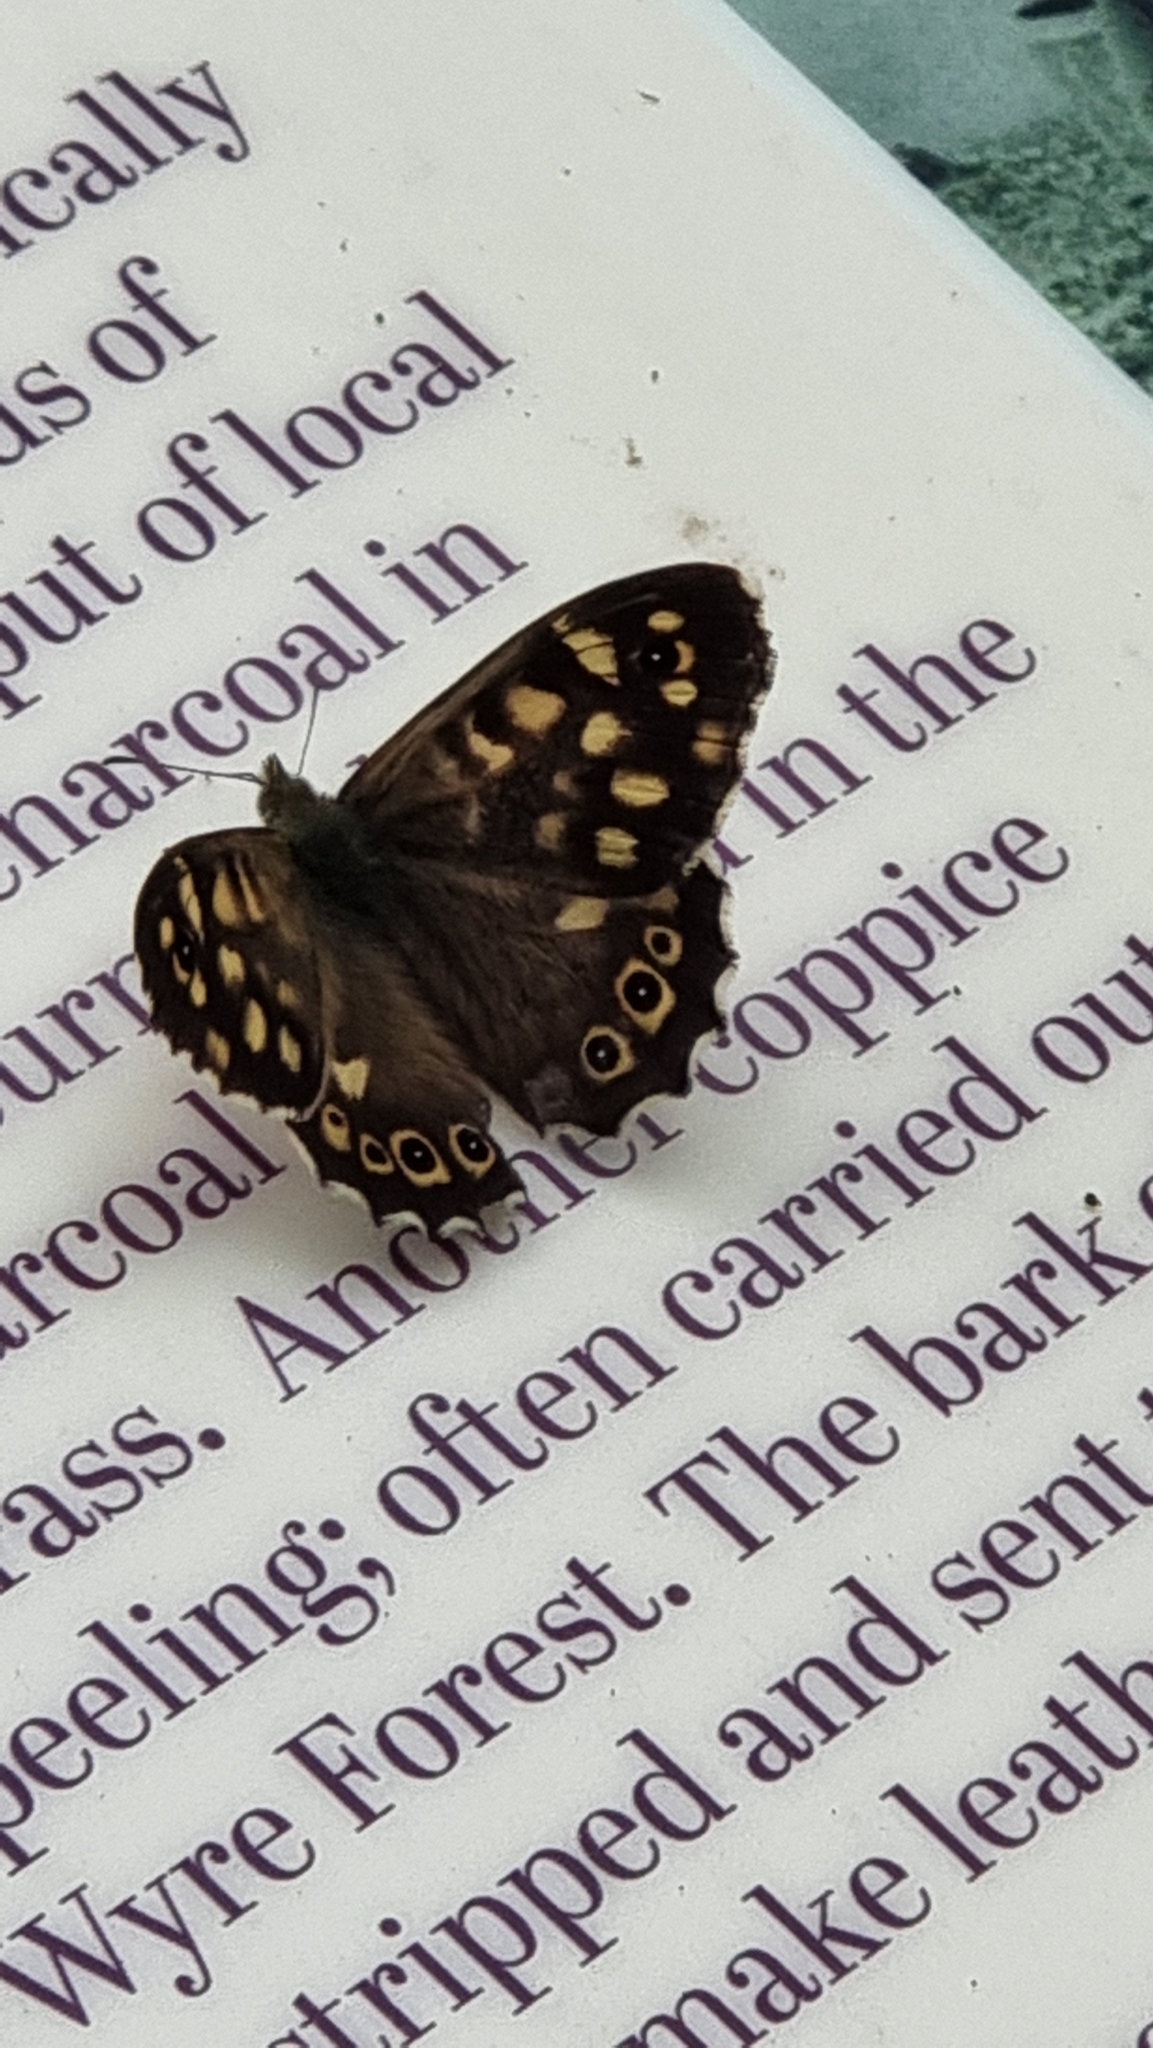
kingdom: Animalia
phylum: Arthropoda
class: Insecta
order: Lepidoptera
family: Nymphalidae
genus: Pararge
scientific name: Pararge aegeria
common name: Speckled wood
